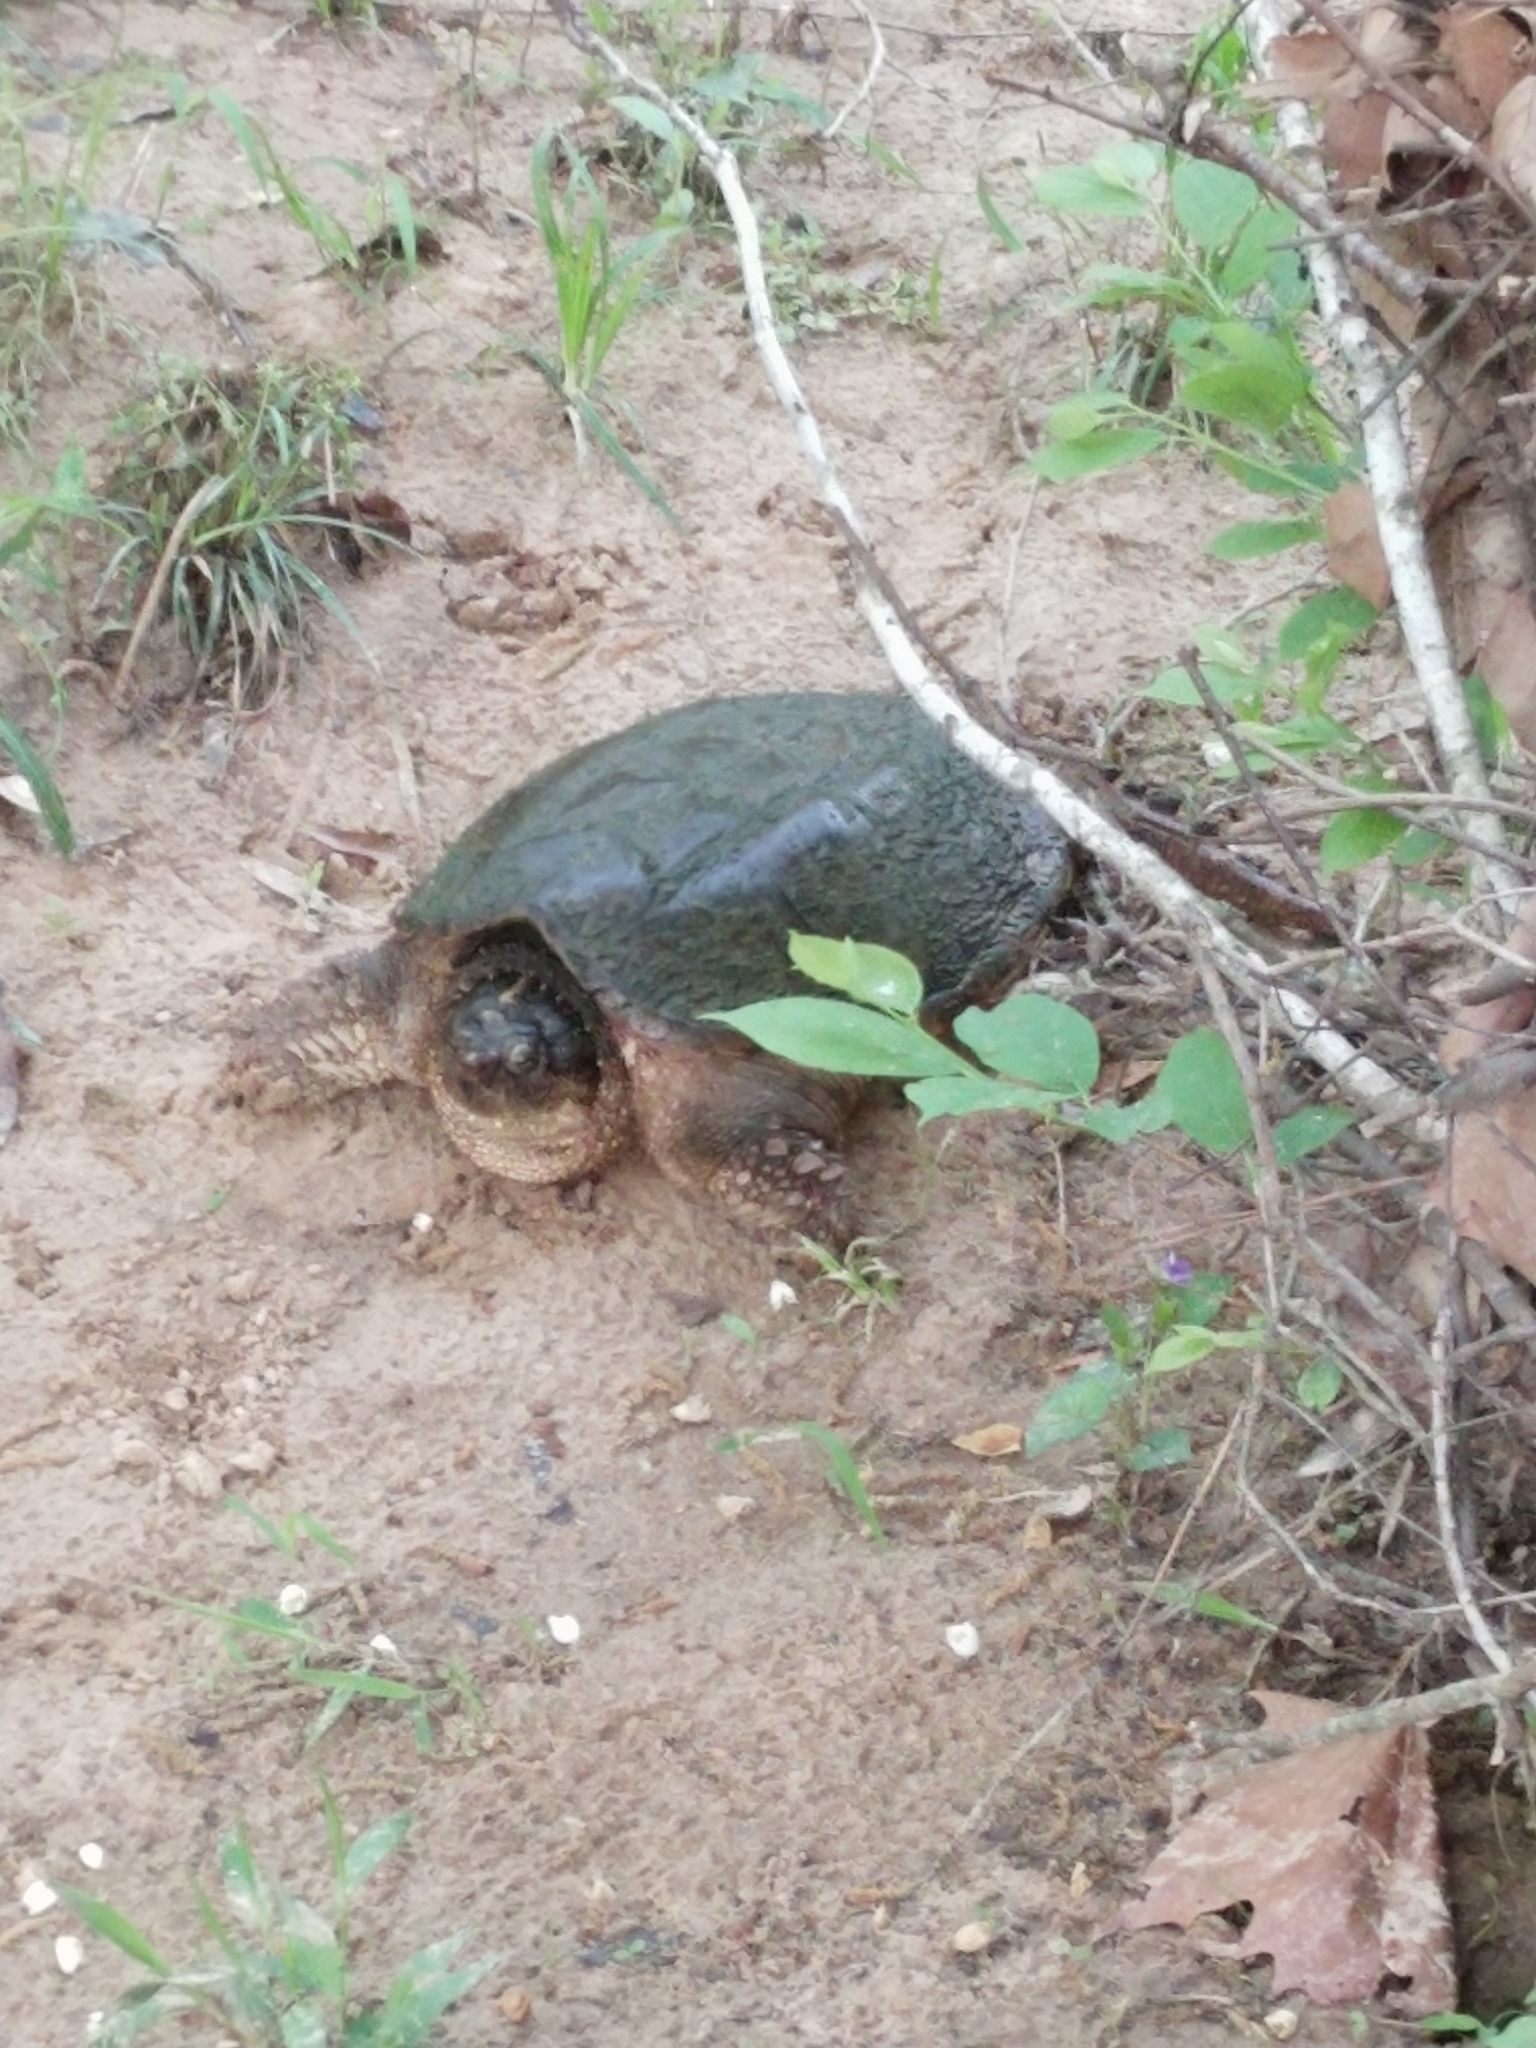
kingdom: Animalia
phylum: Chordata
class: Testudines
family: Chelydridae
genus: Chelydra
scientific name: Chelydra serpentina
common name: Common snapping turtle
